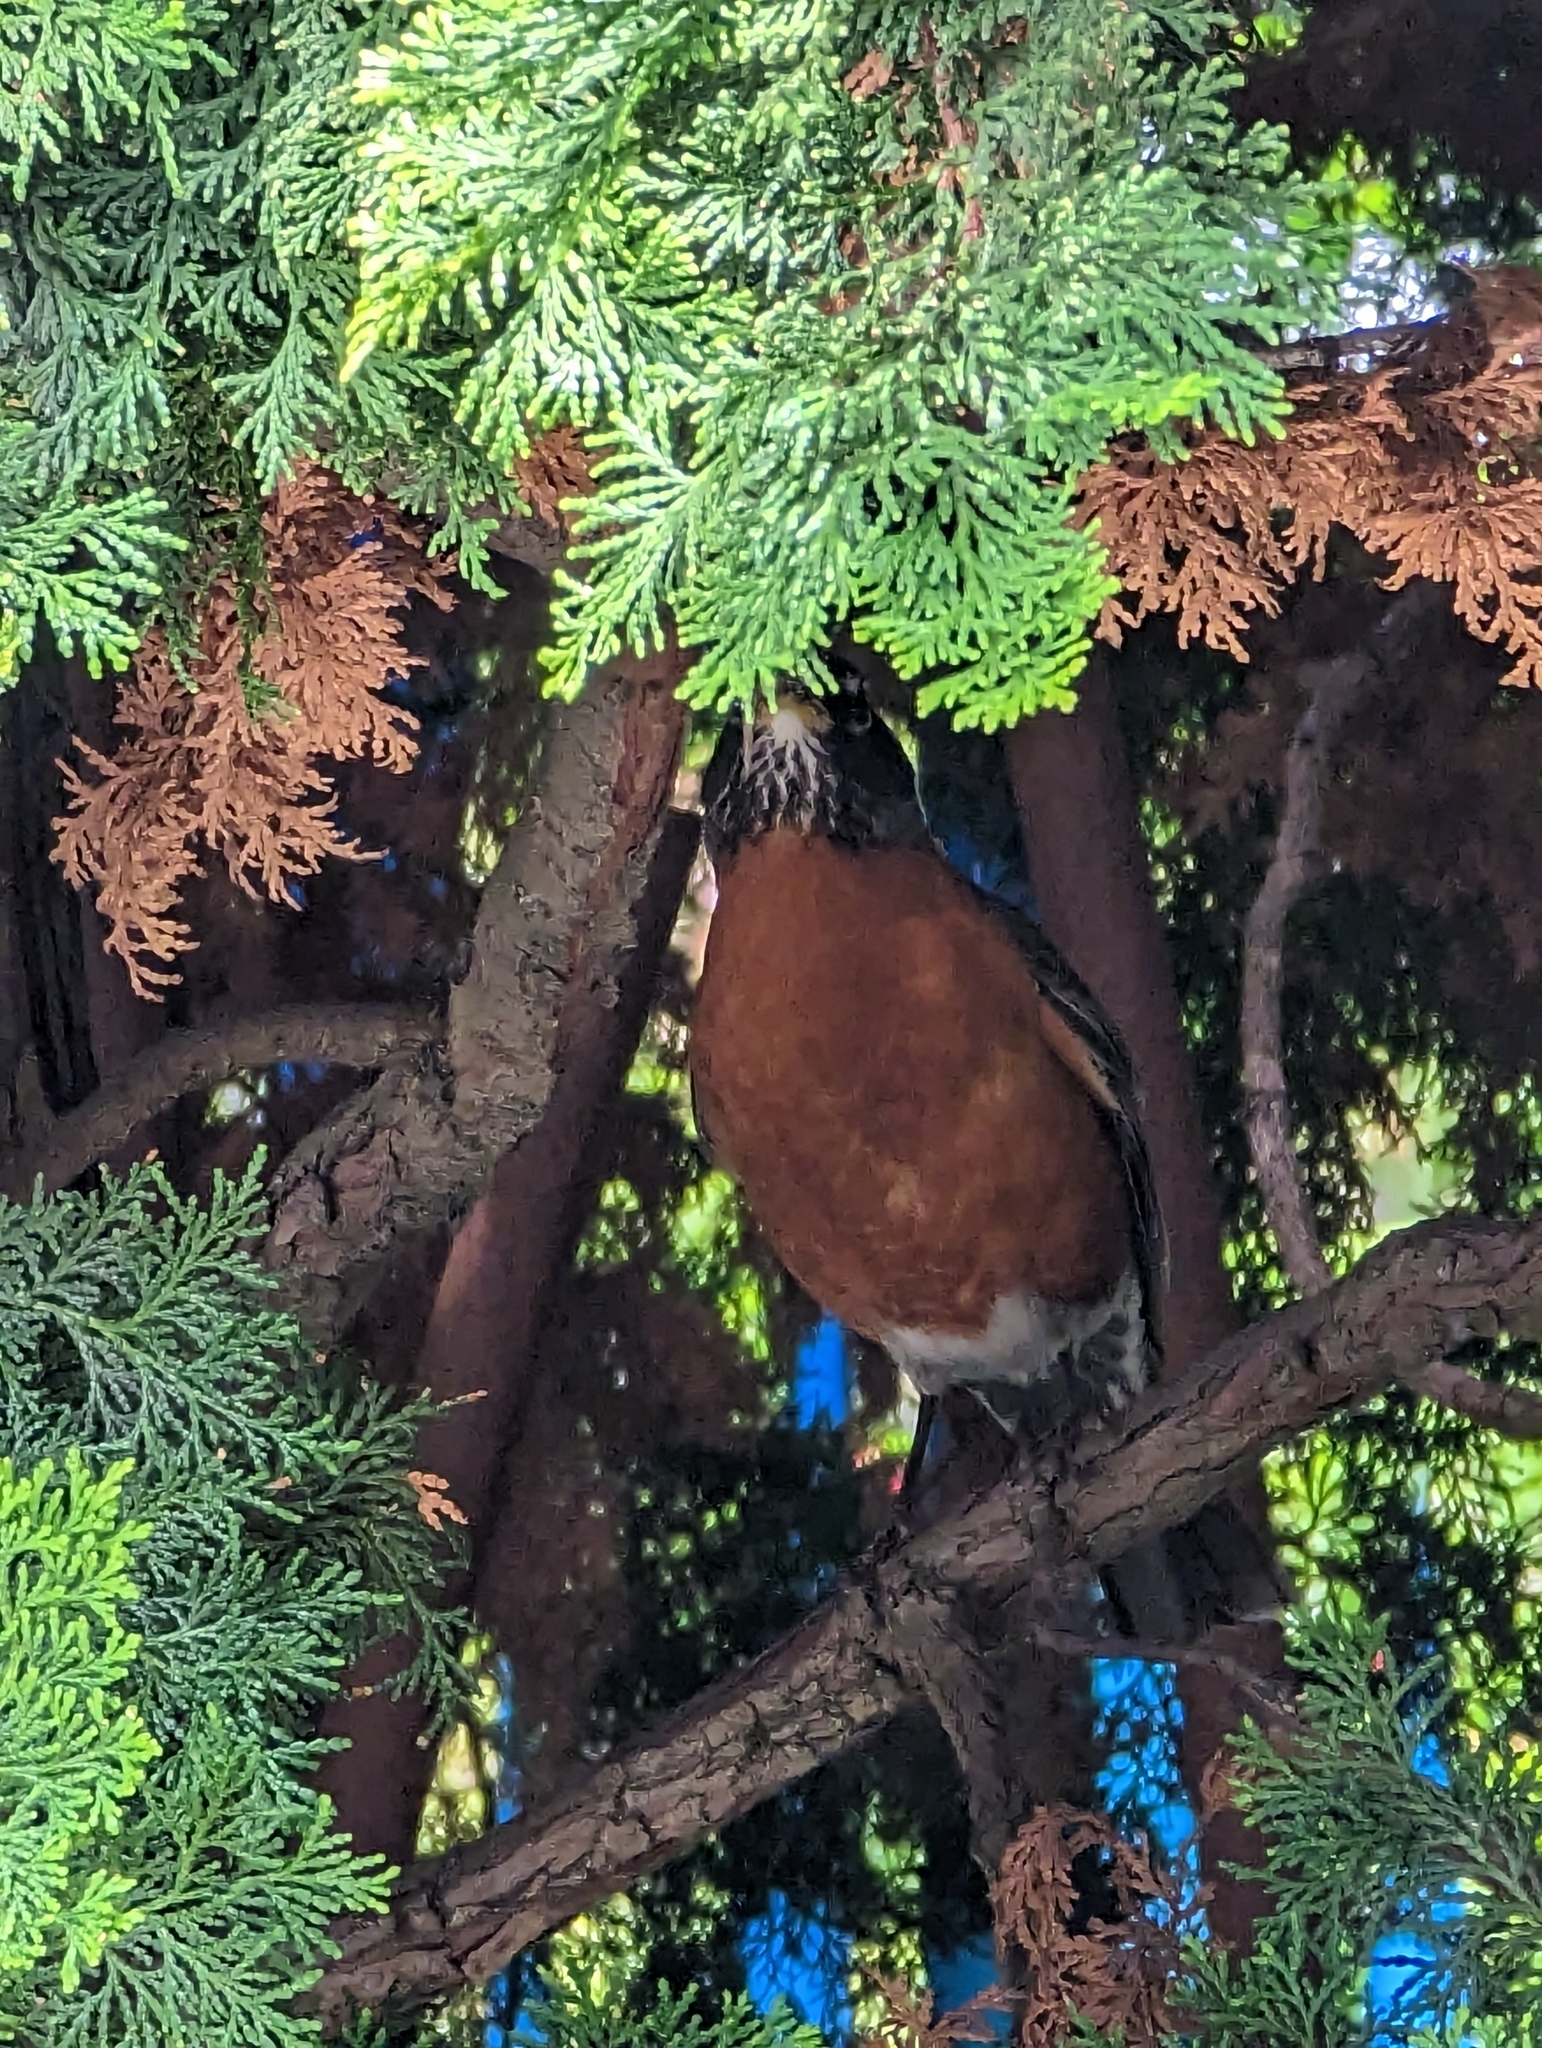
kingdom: Animalia
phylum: Chordata
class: Aves
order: Passeriformes
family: Turdidae
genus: Turdus
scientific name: Turdus migratorius
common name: American robin
